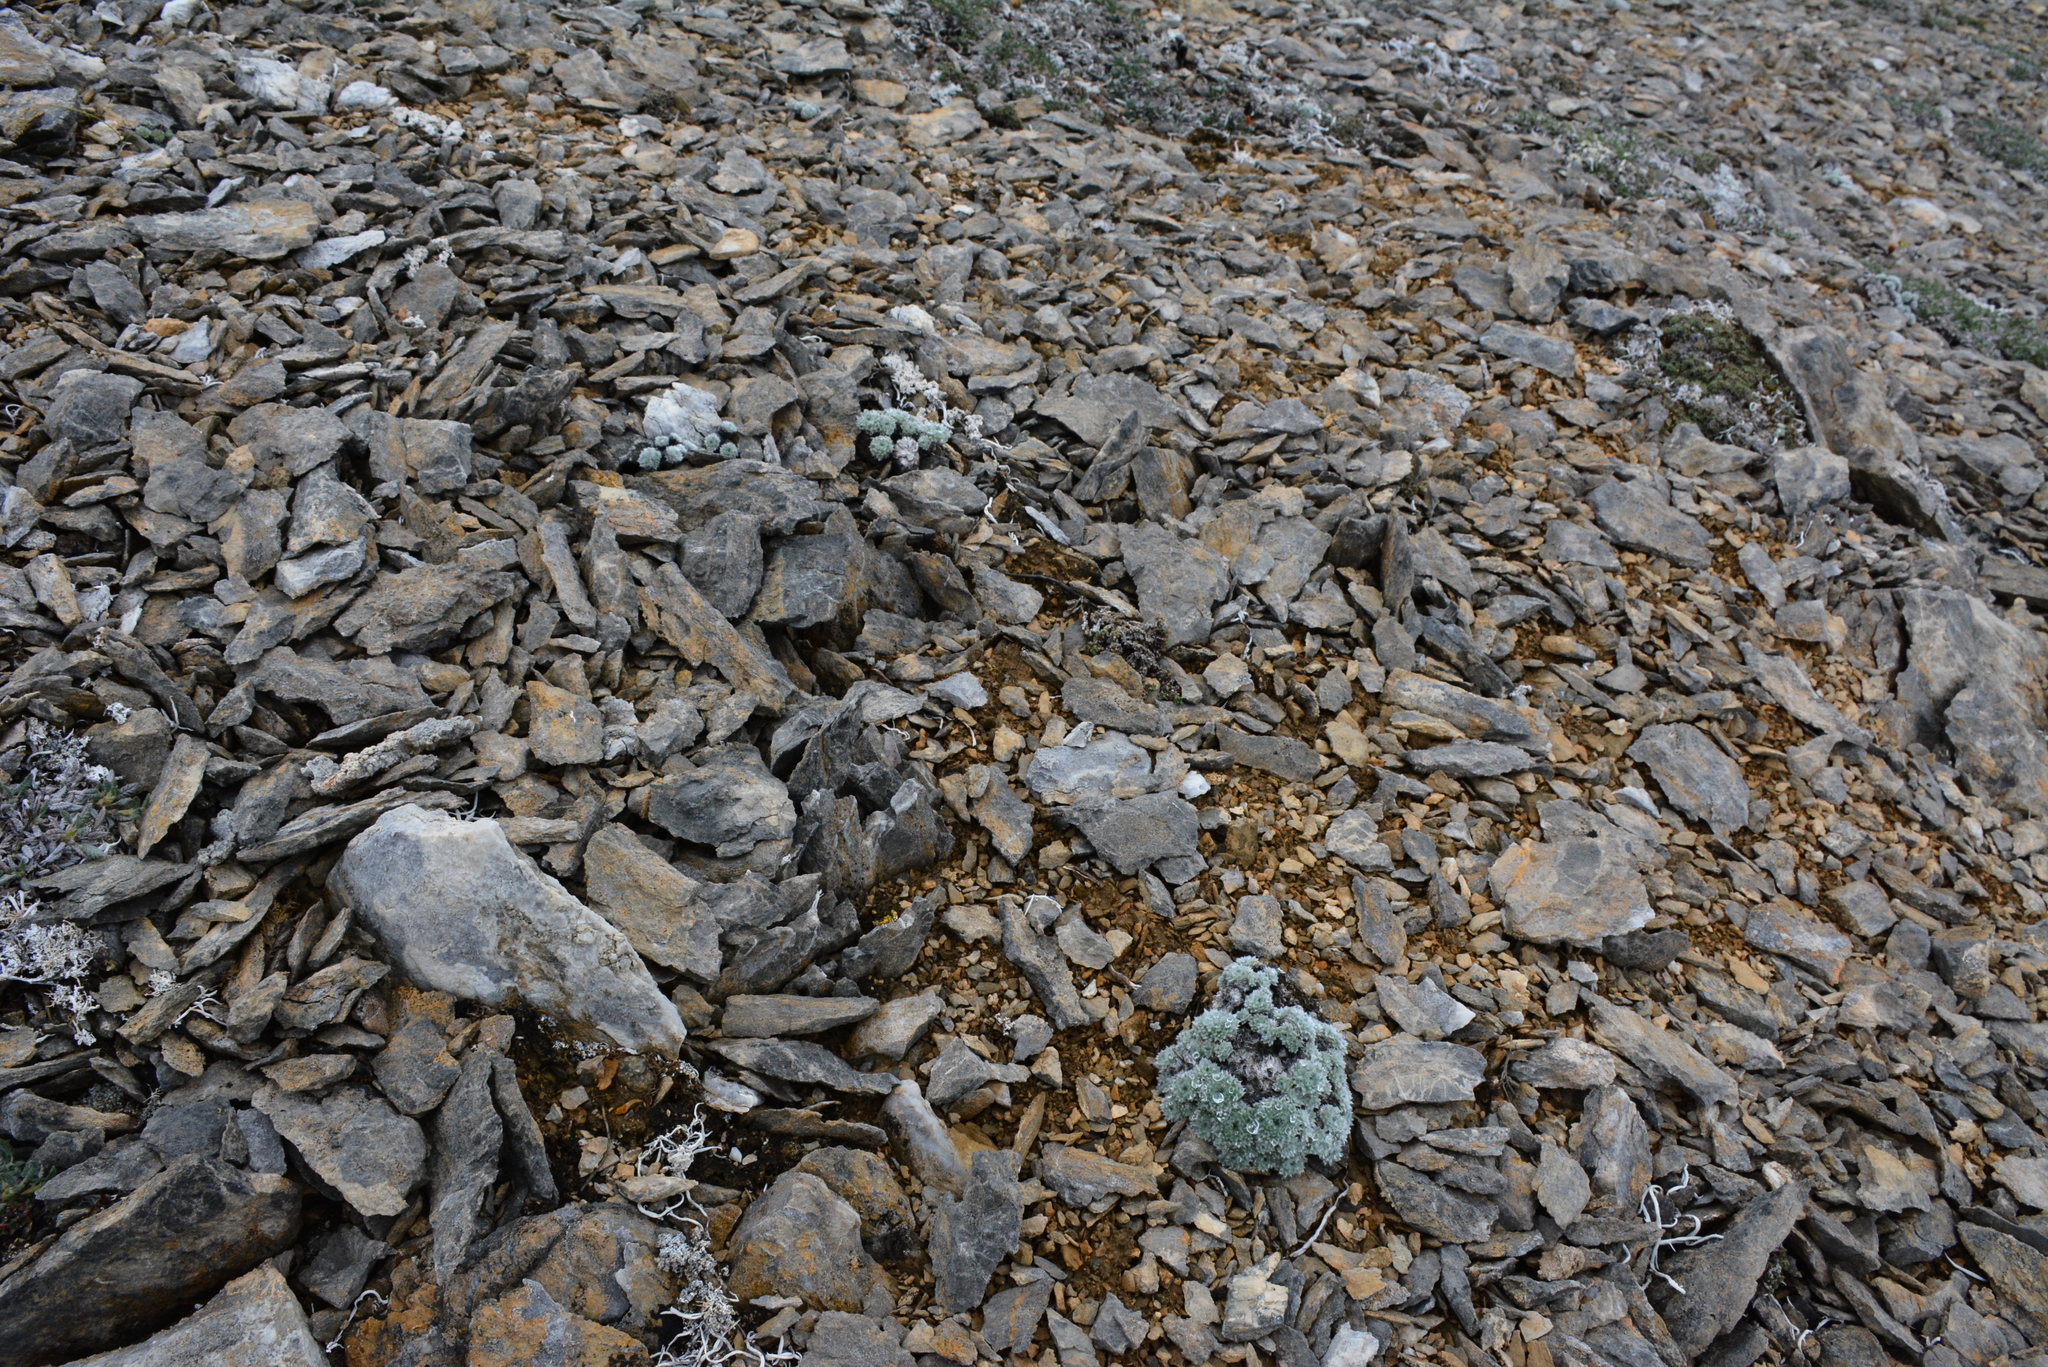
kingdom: Plantae
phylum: Tracheophyta
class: Magnoliopsida
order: Asterales
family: Asteraceae
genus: Artemisia
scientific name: Artemisia senjavinensis
